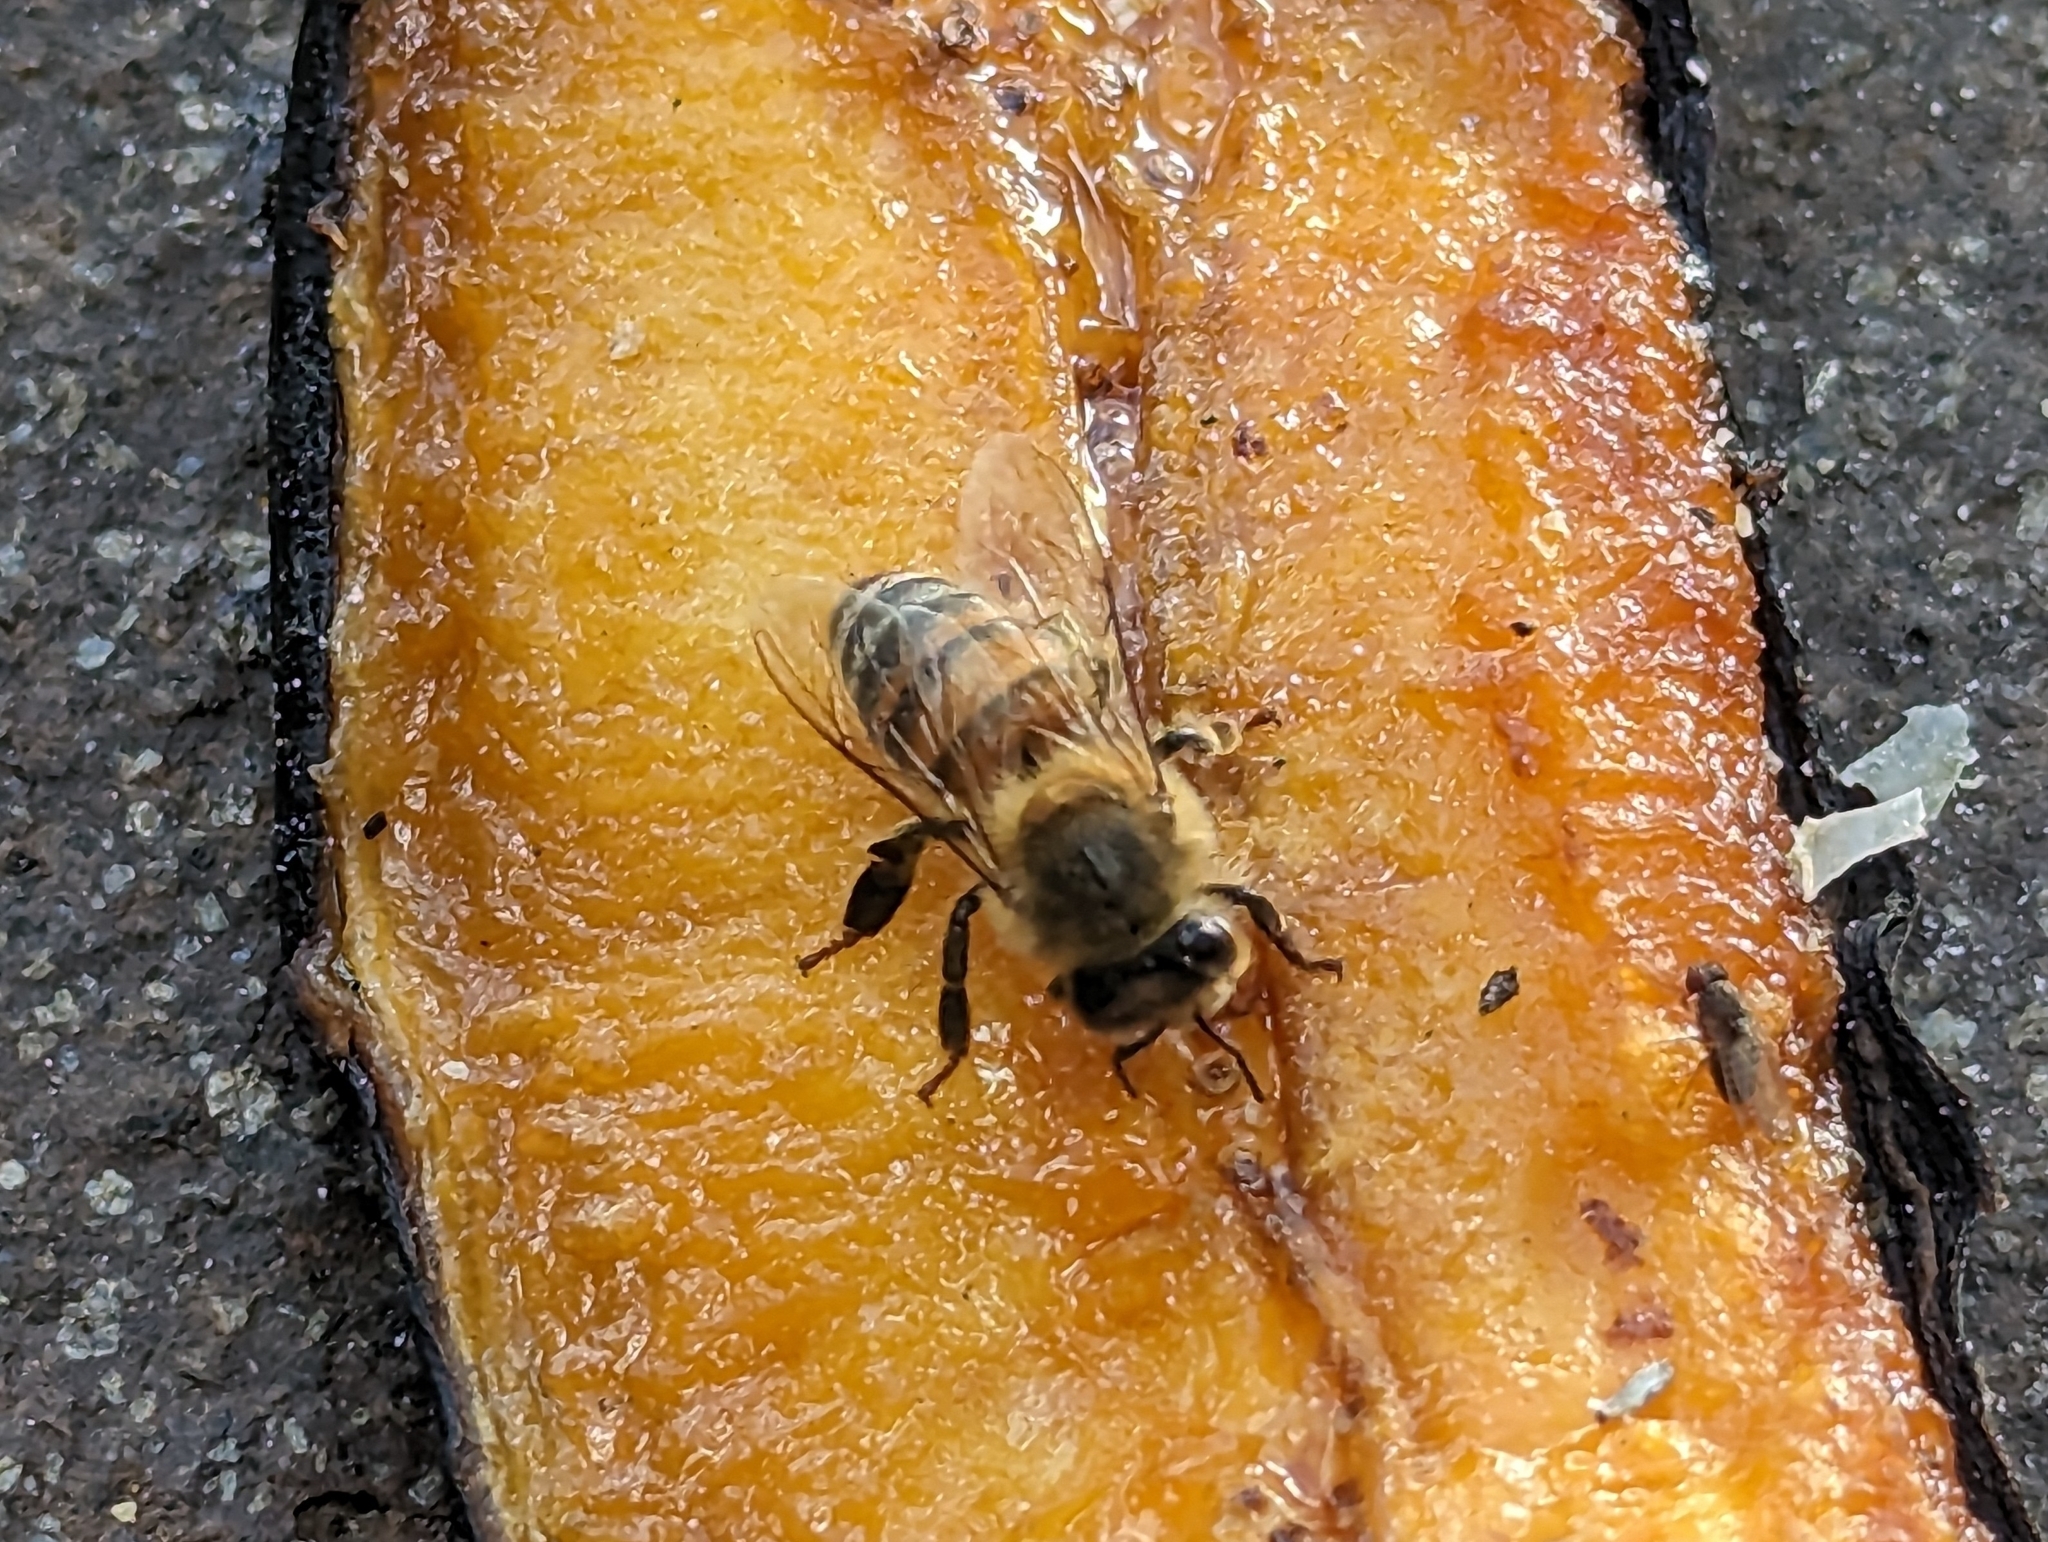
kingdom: Animalia
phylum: Arthropoda
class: Insecta
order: Hymenoptera
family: Apidae
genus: Apis
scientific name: Apis mellifera
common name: Honey bee
